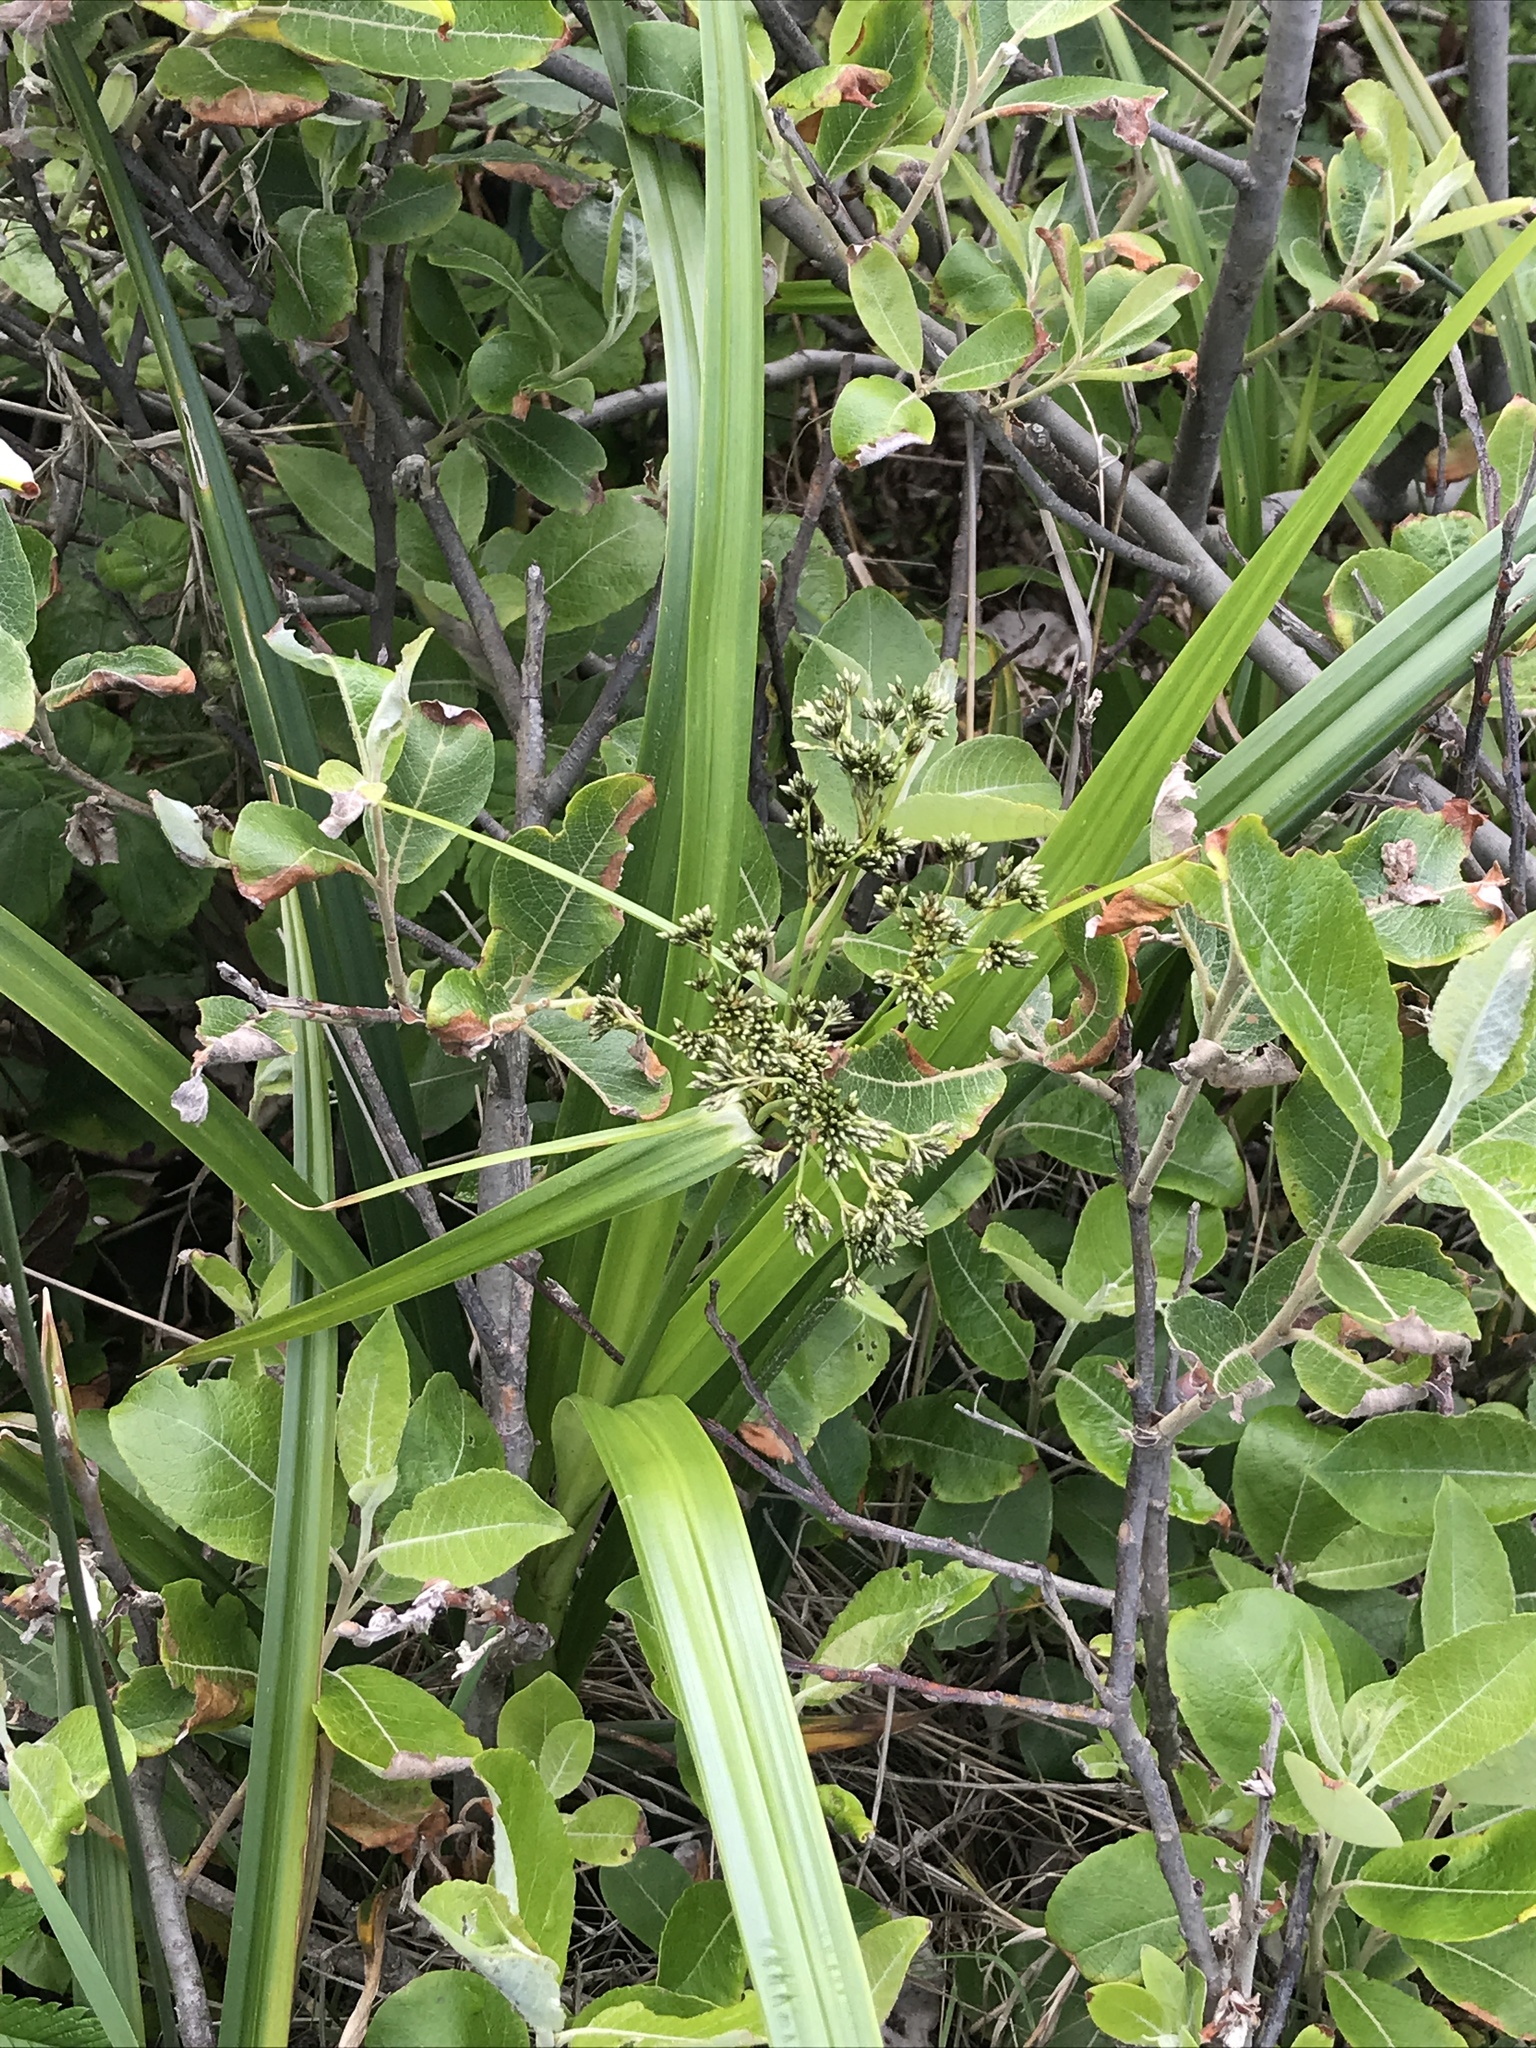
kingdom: Plantae
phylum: Tracheophyta
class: Liliopsida
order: Poales
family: Cyperaceae
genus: Scirpus
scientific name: Scirpus microcarpus
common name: Panicled bulrush
